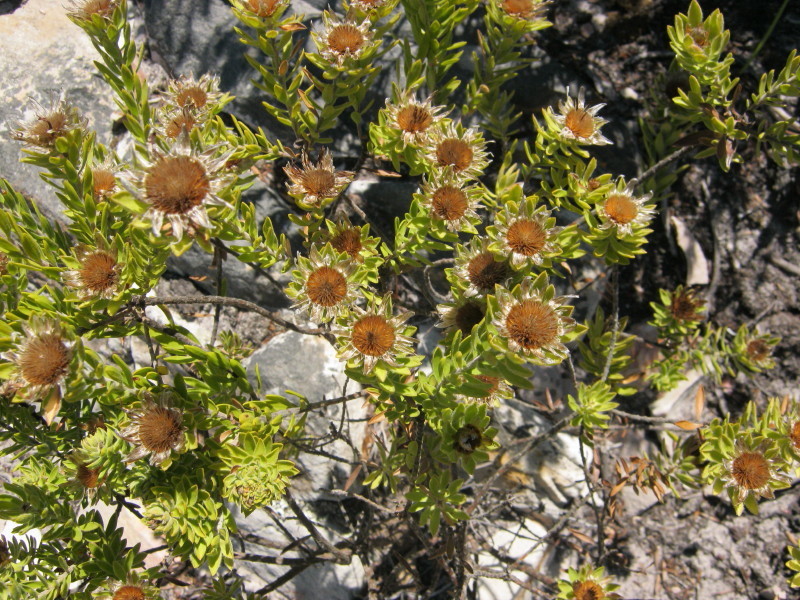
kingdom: Plantae
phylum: Tracheophyta
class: Magnoliopsida
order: Asterales
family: Asteraceae
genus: Oedera
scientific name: Oedera calycina
